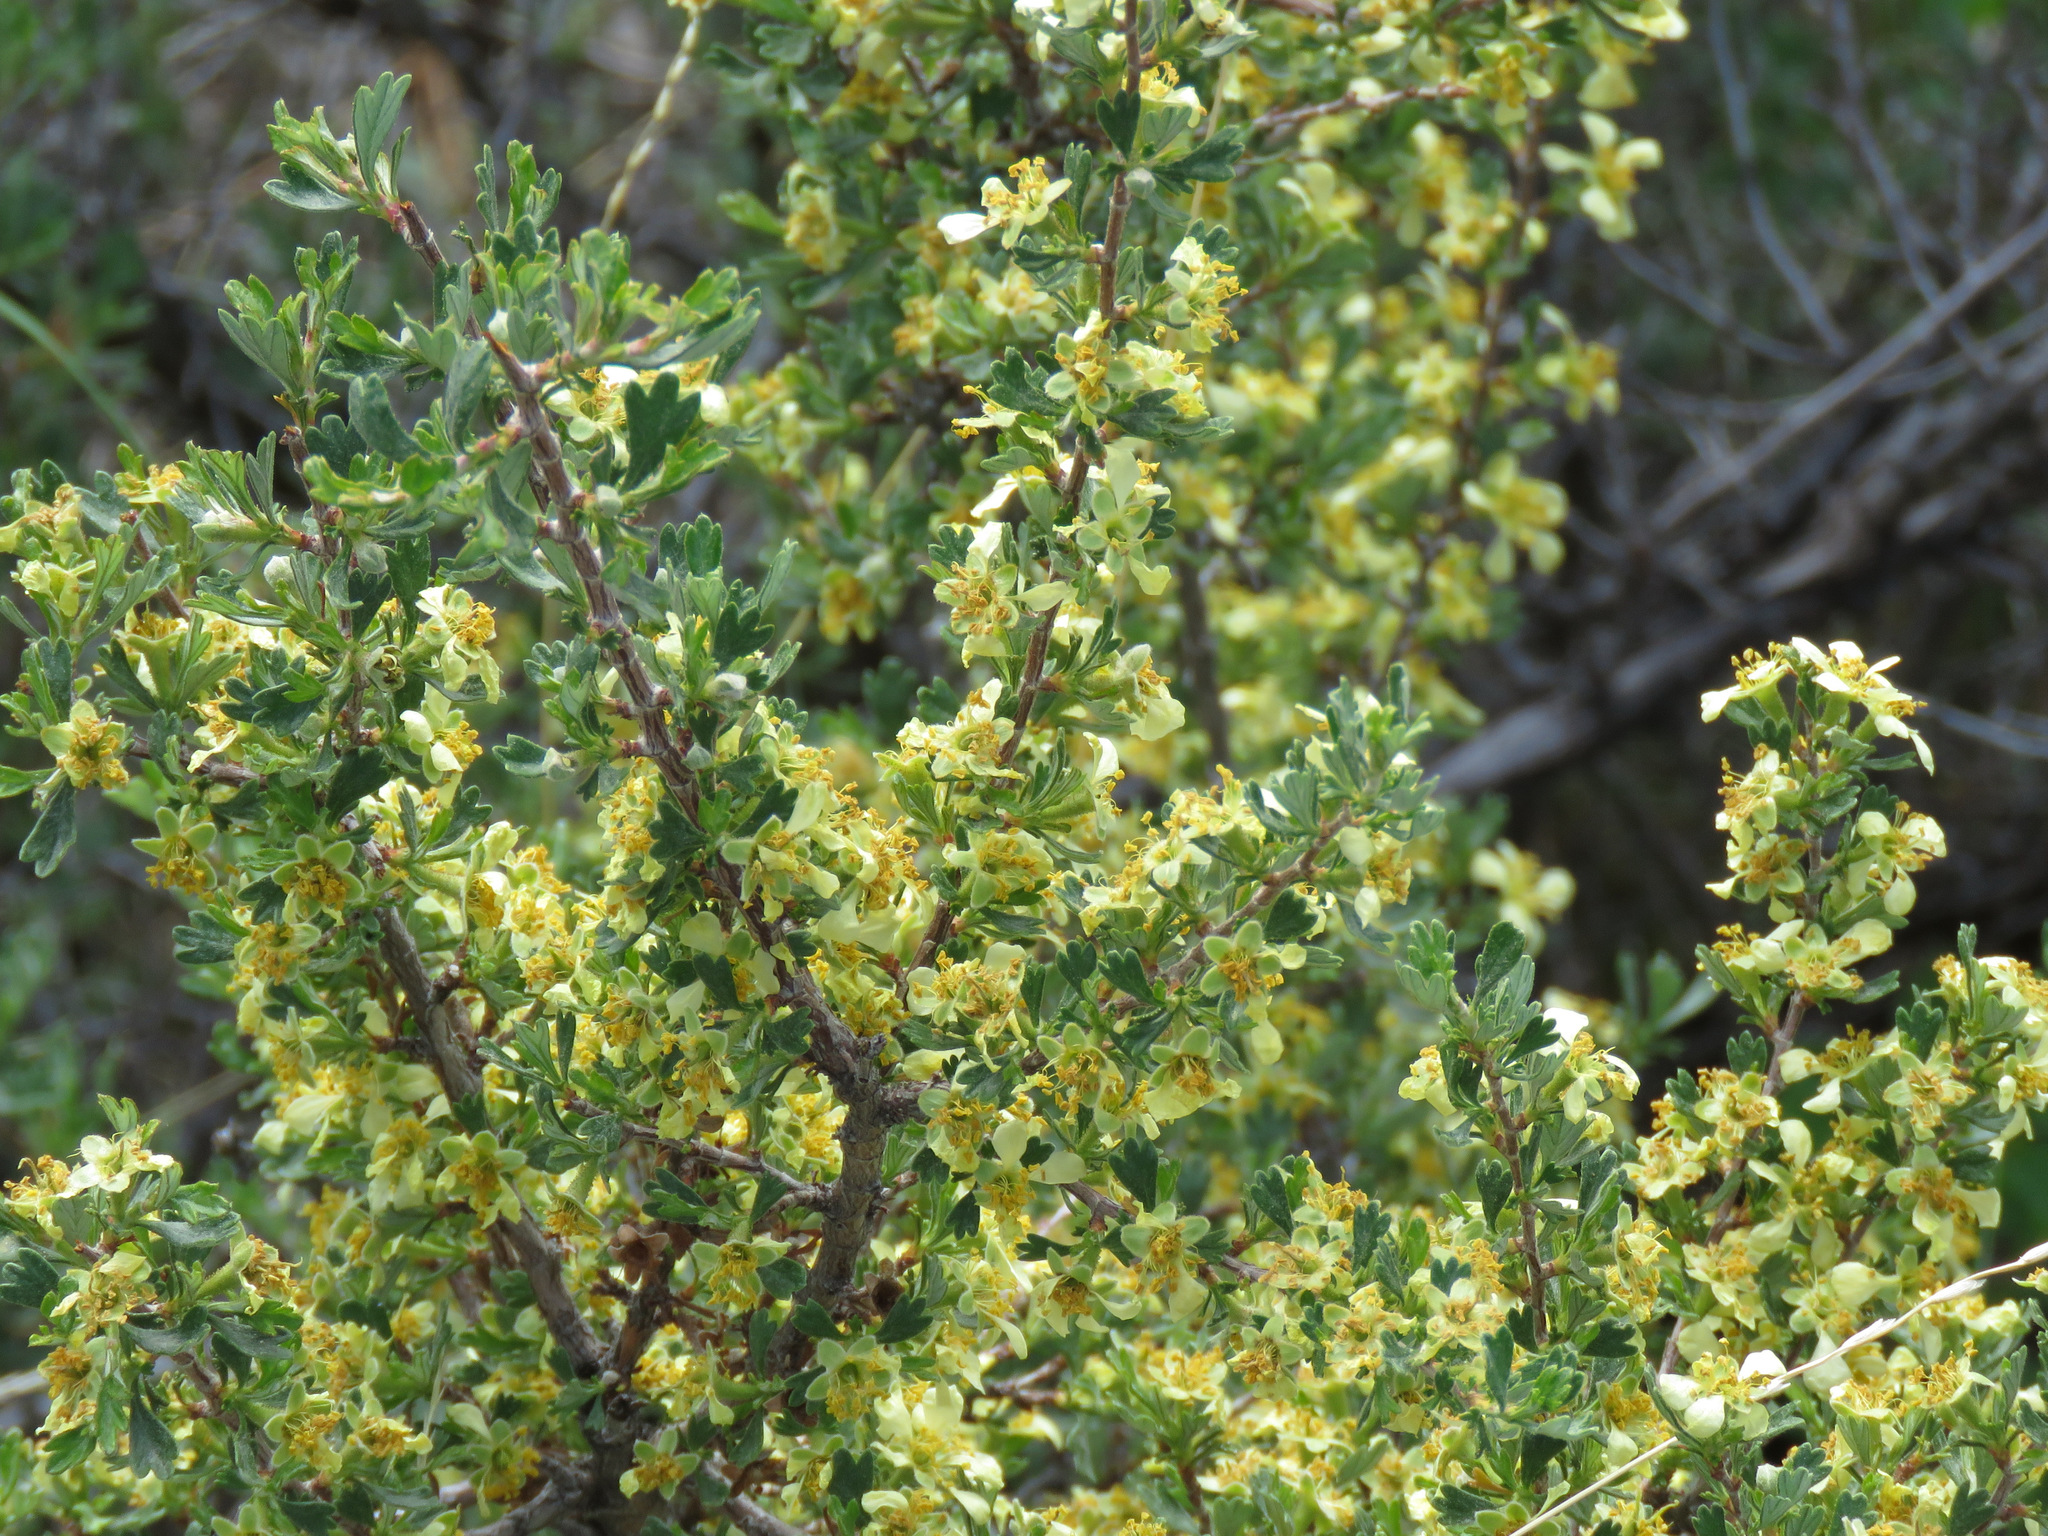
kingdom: Plantae
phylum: Tracheophyta
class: Magnoliopsida
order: Rosales
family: Rosaceae
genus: Purshia
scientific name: Purshia tridentata
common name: Antelope bitterbrush
